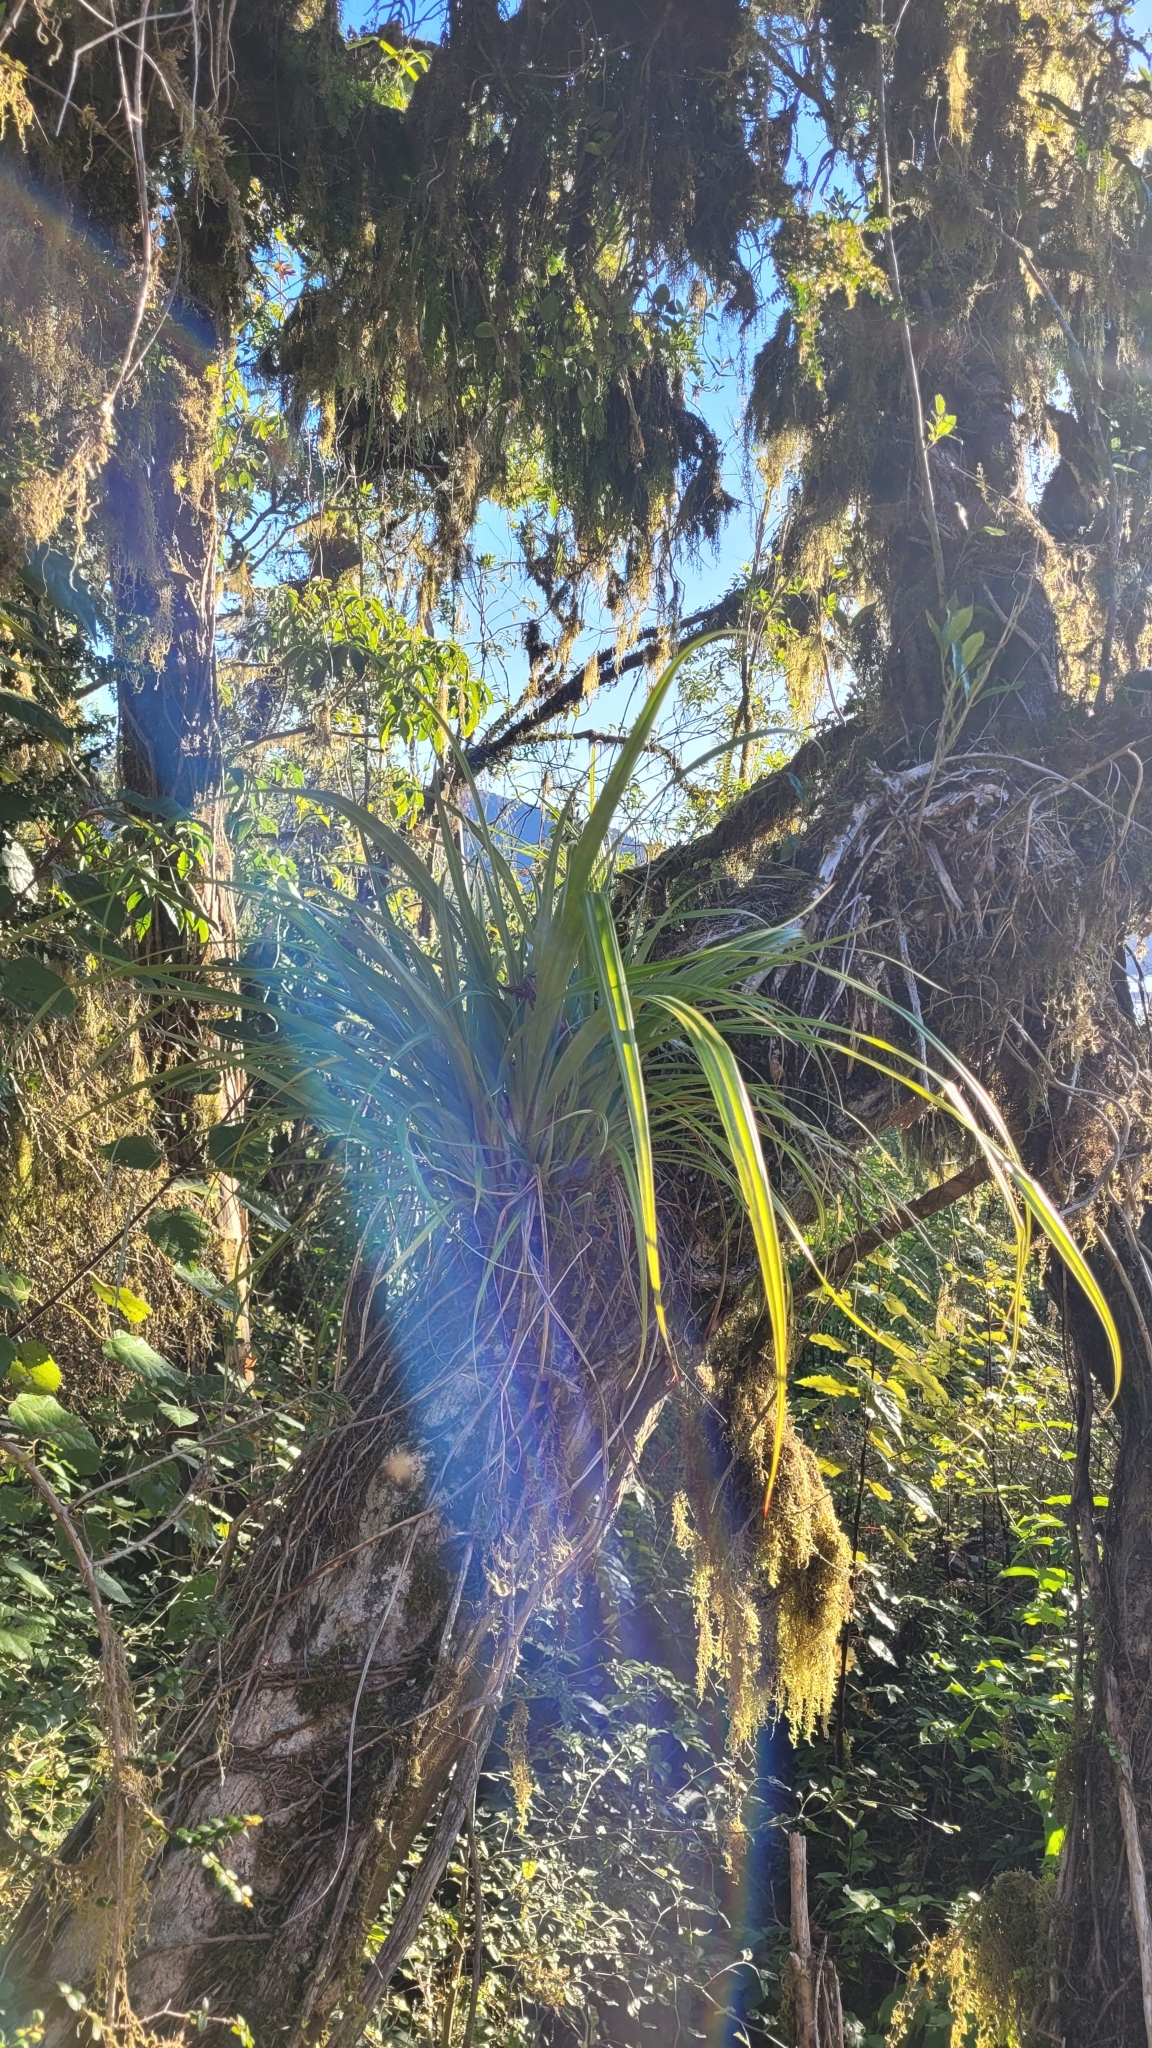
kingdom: Plantae
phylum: Tracheophyta
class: Liliopsida
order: Asparagales
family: Asteliaceae
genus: Astelia
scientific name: Astelia solandri
